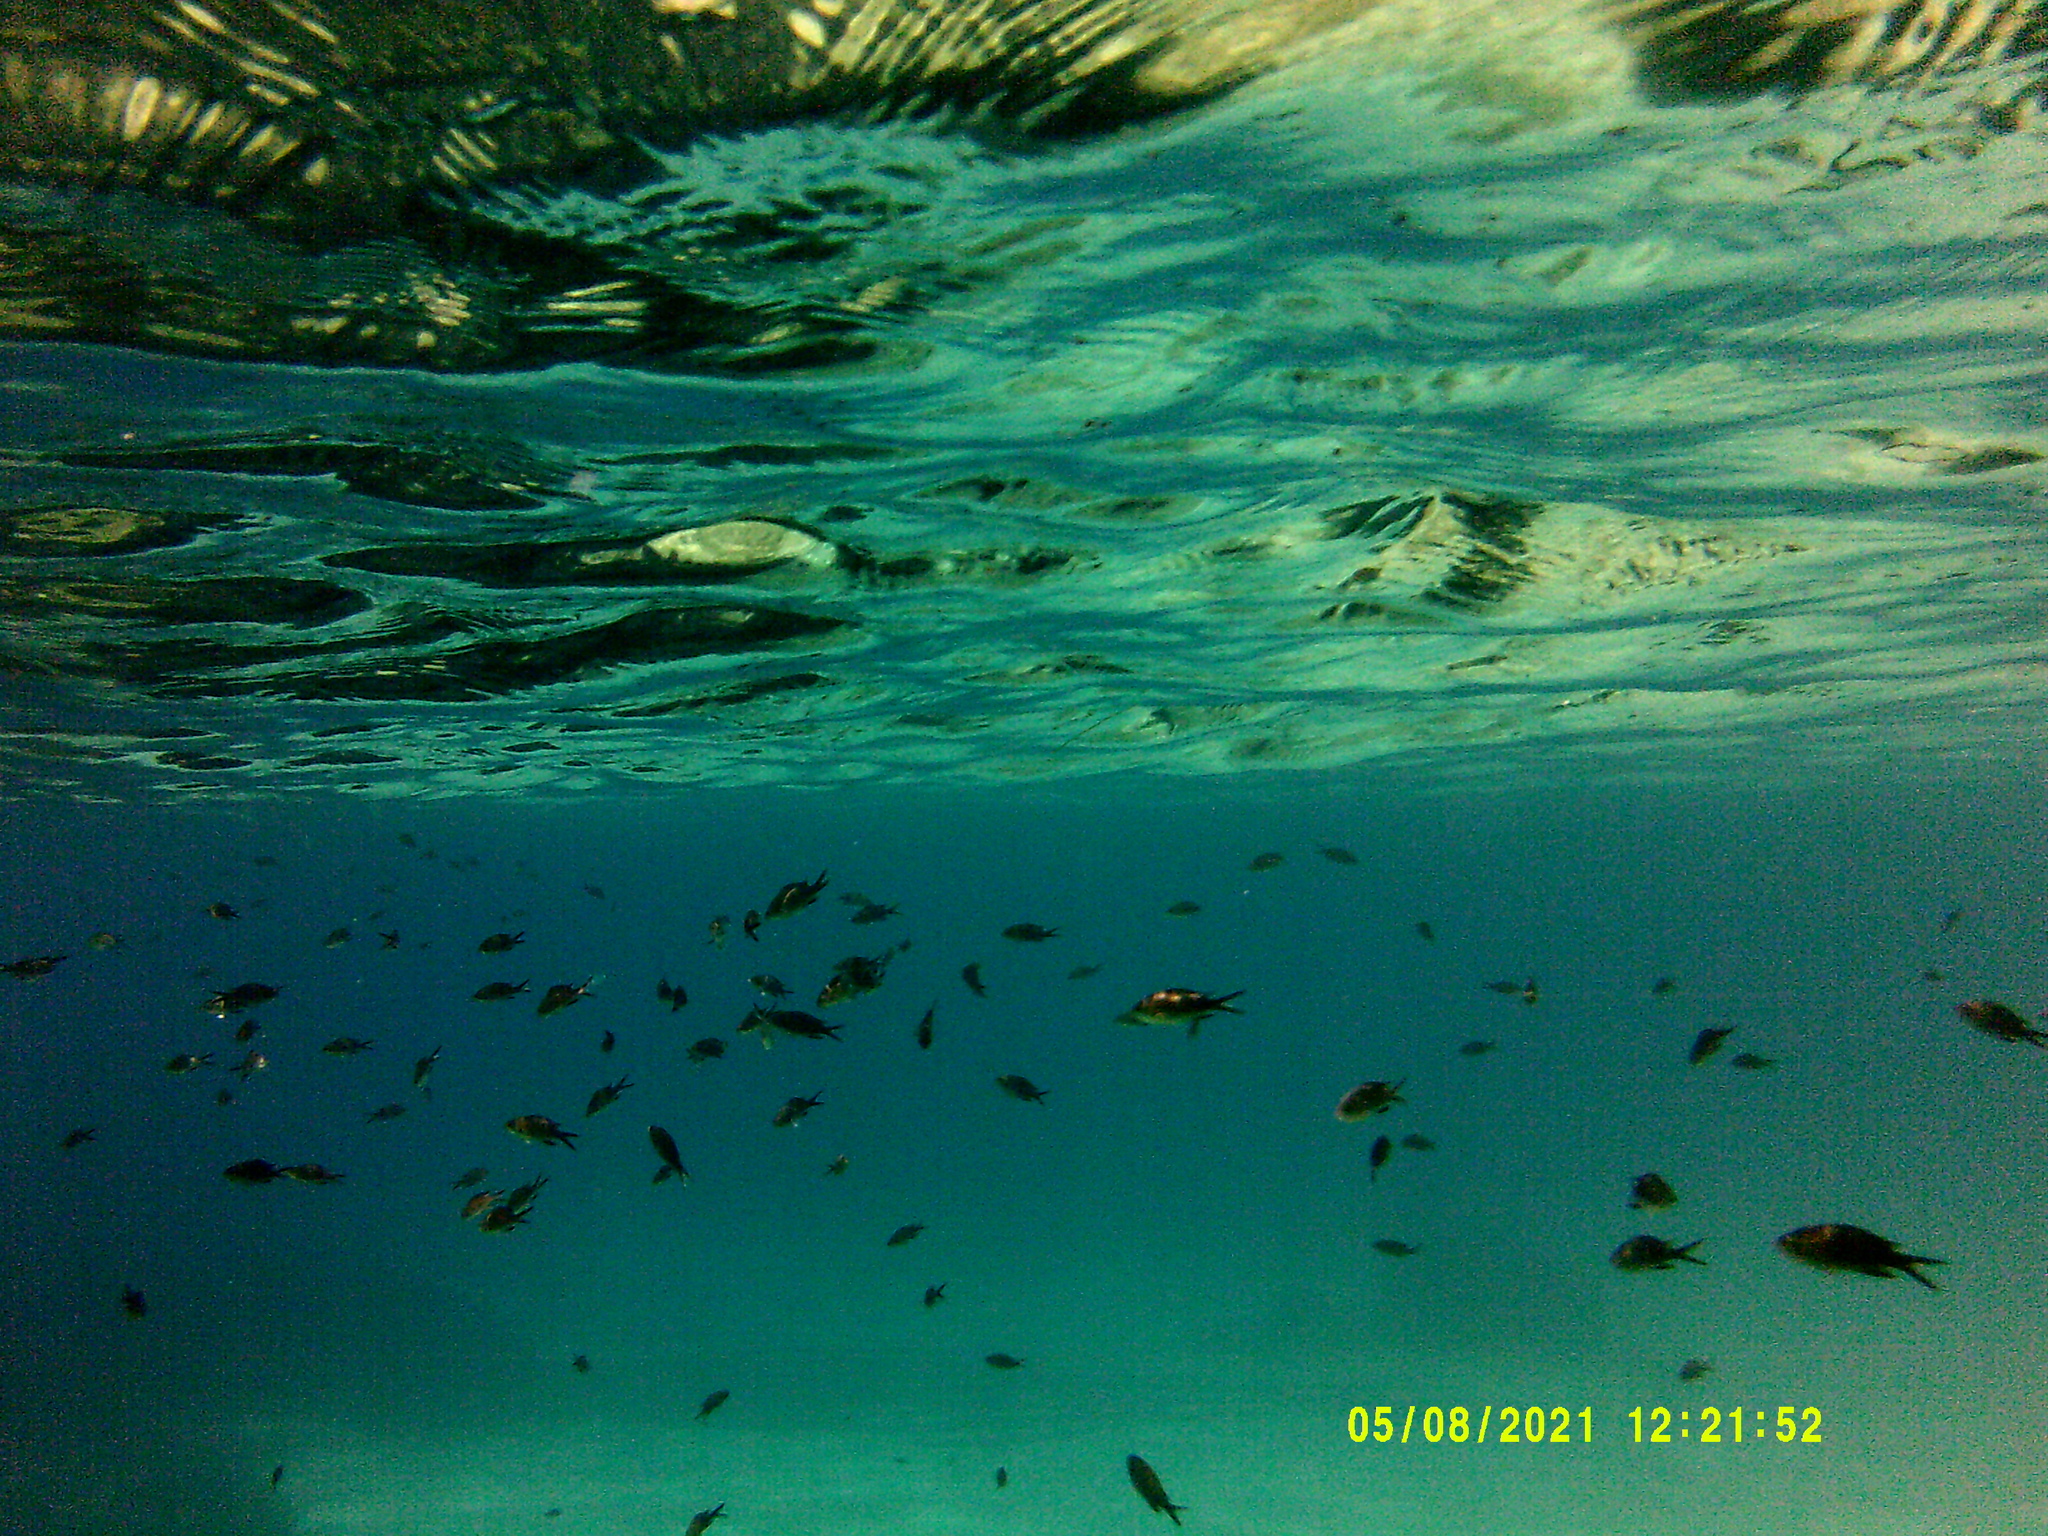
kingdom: Animalia
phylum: Chordata
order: Perciformes
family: Pomacentridae
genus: Chromis
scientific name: Chromis chromis
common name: Damselfish
